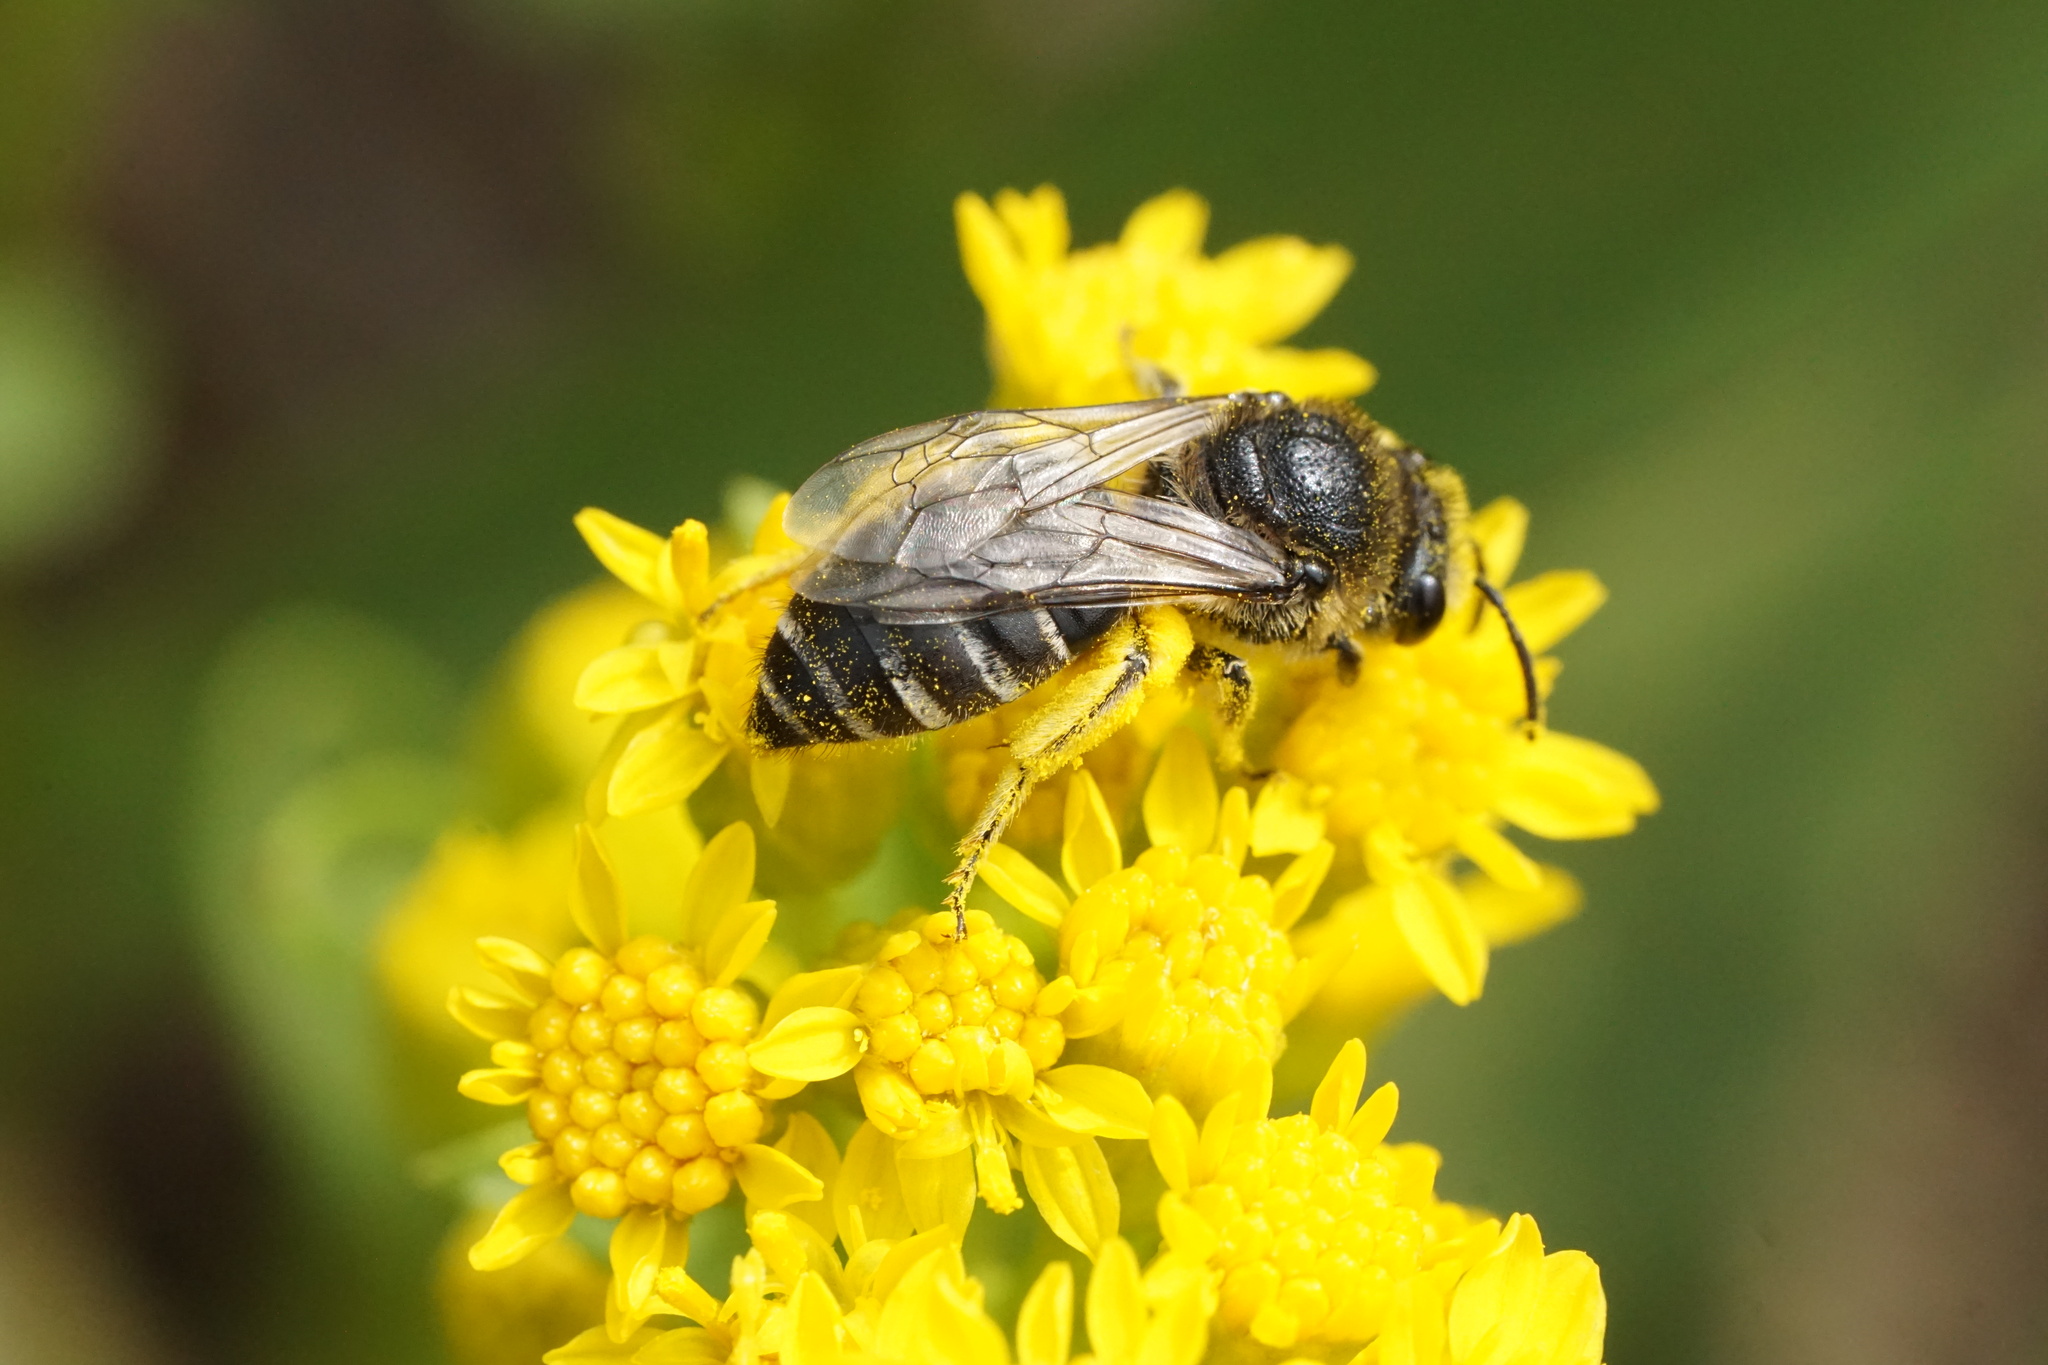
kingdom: Animalia
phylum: Arthropoda
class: Insecta
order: Hymenoptera
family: Colletidae
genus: Colletes
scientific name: Colletes simulans
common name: Spine-shouldered cellophane bee
